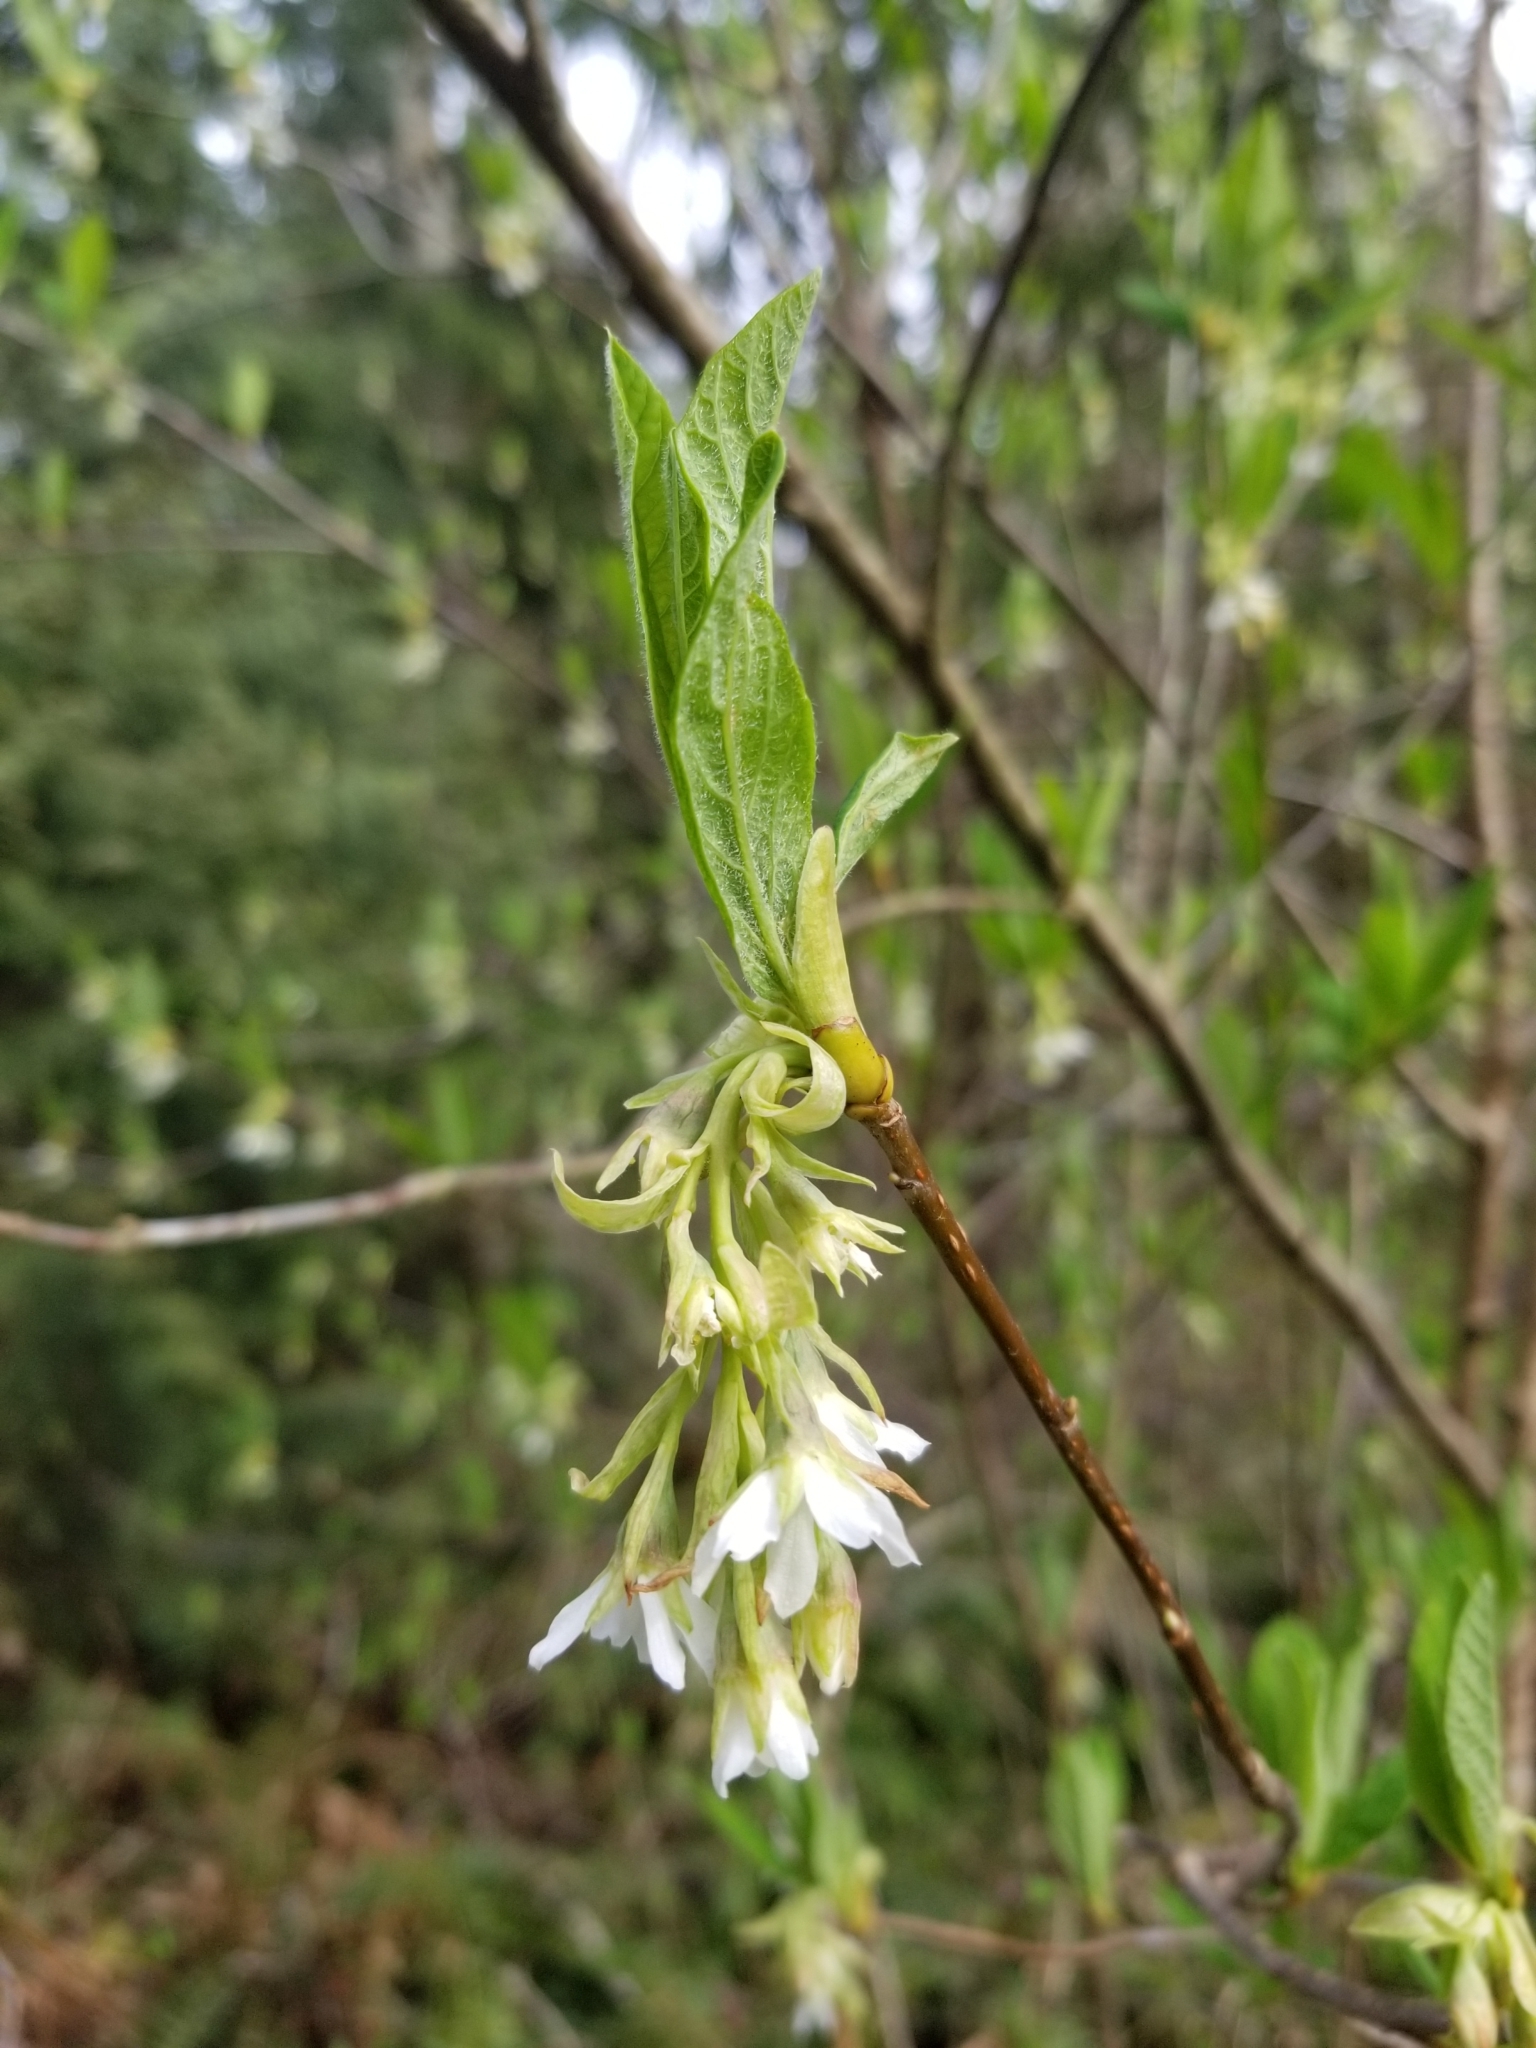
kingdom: Plantae
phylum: Tracheophyta
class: Magnoliopsida
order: Rosales
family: Rosaceae
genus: Oemleria
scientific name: Oemleria cerasiformis
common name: Osoberry
